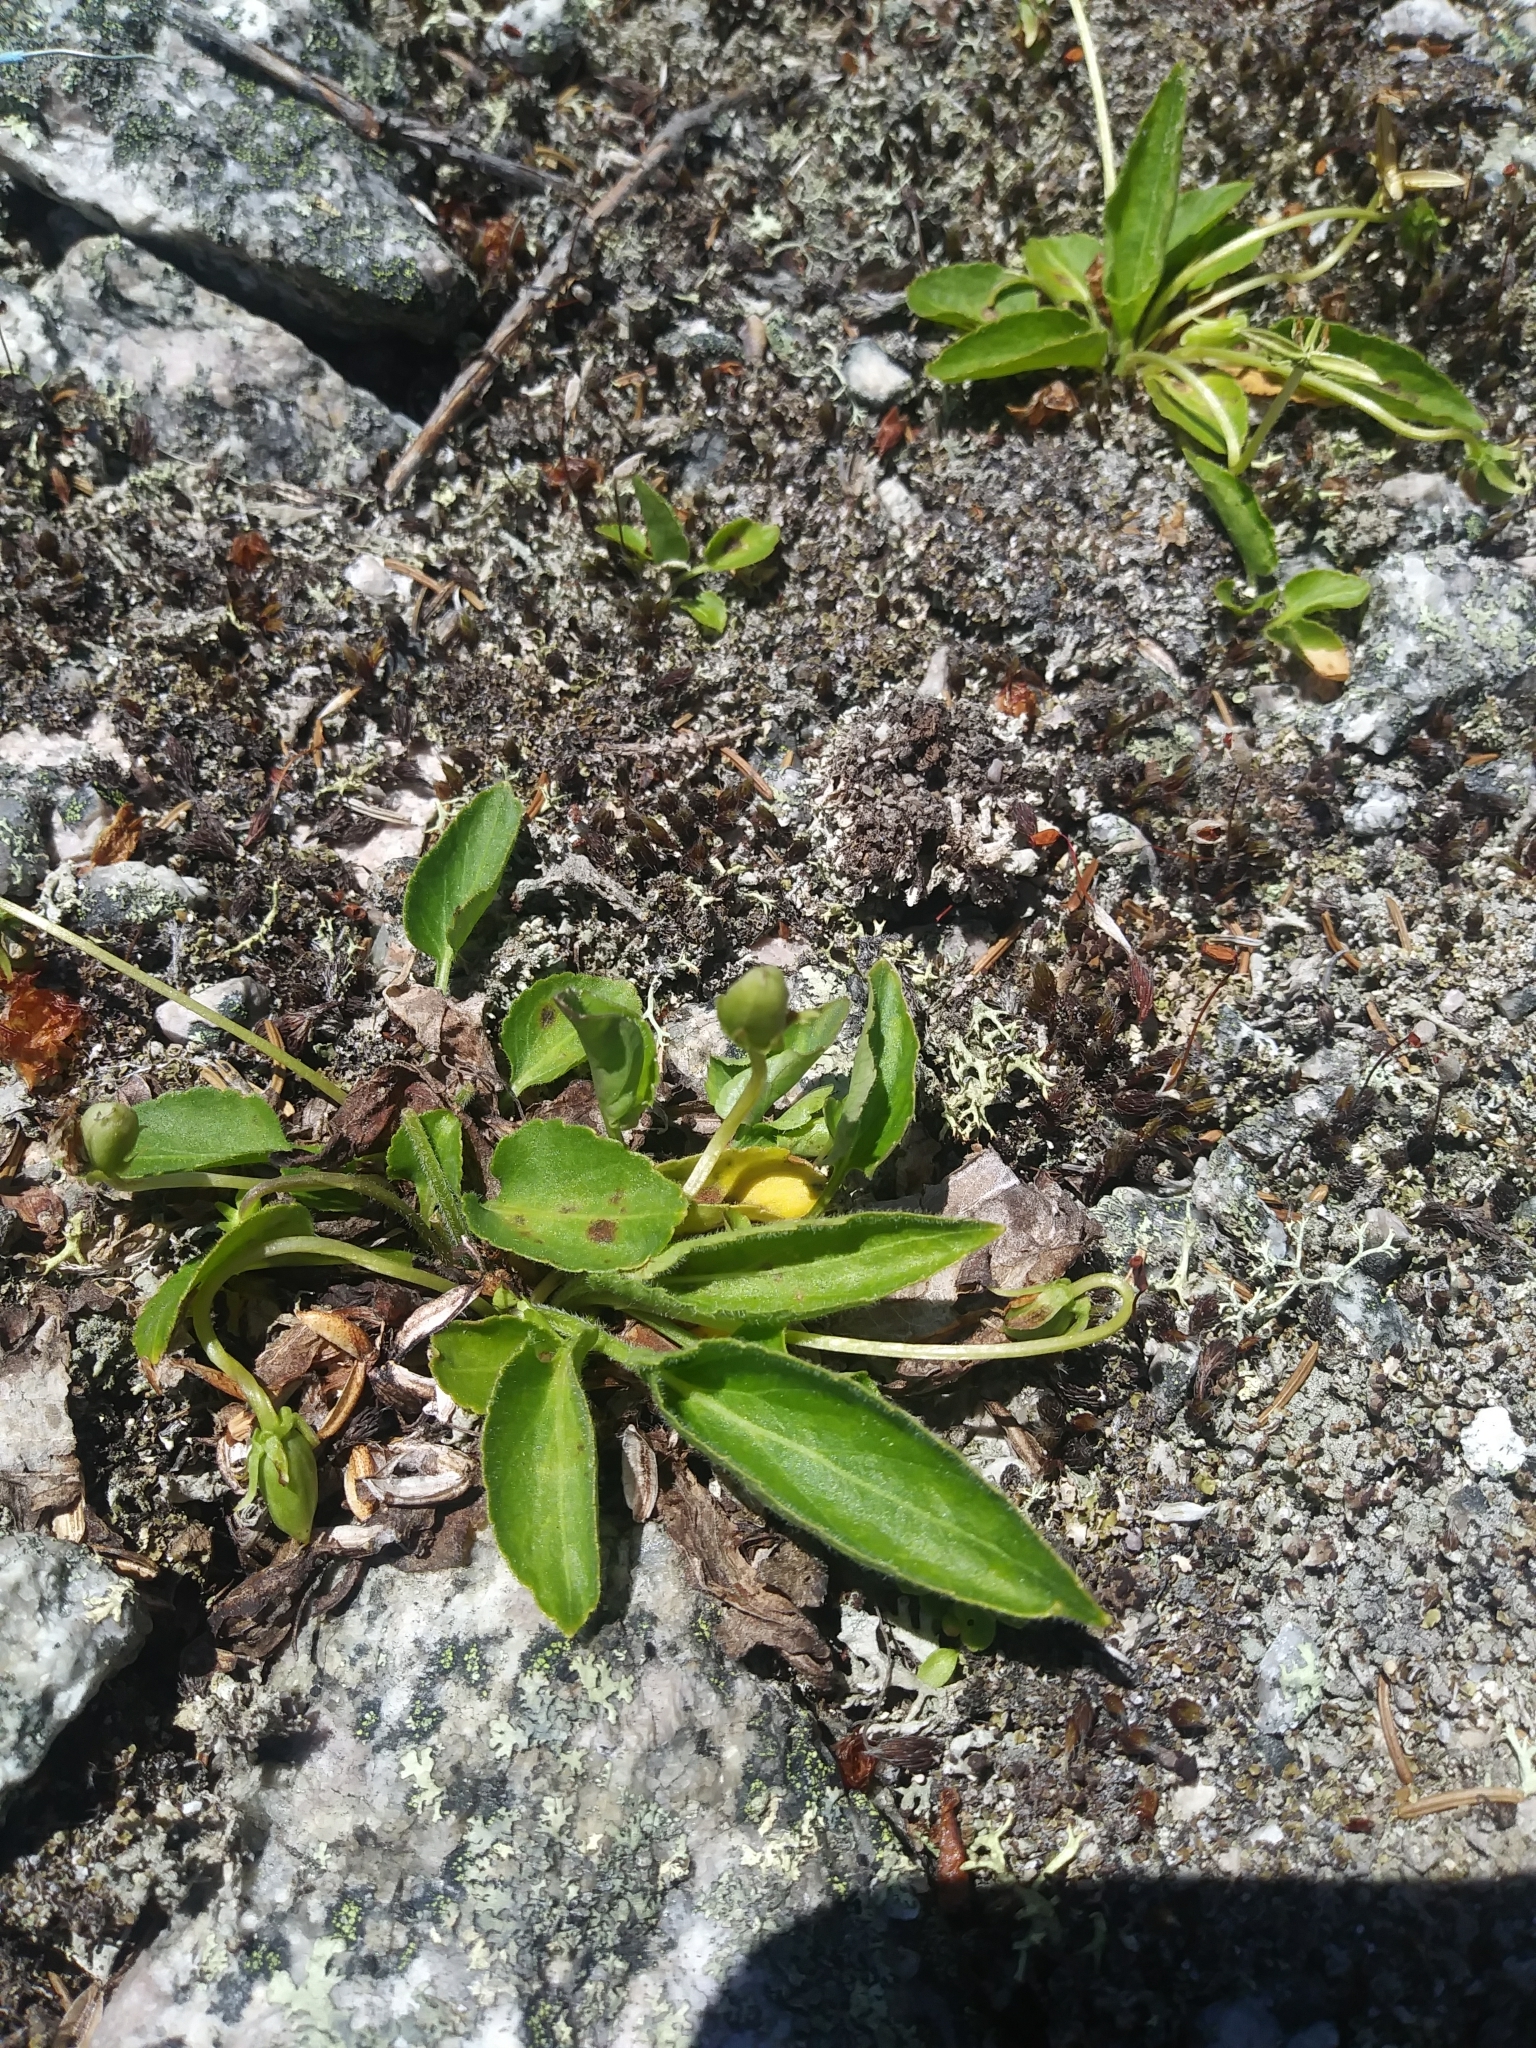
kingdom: Plantae
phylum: Tracheophyta
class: Magnoliopsida
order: Malpighiales
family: Violaceae
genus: Viola
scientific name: Viola fimbriatula
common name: Sand violet
